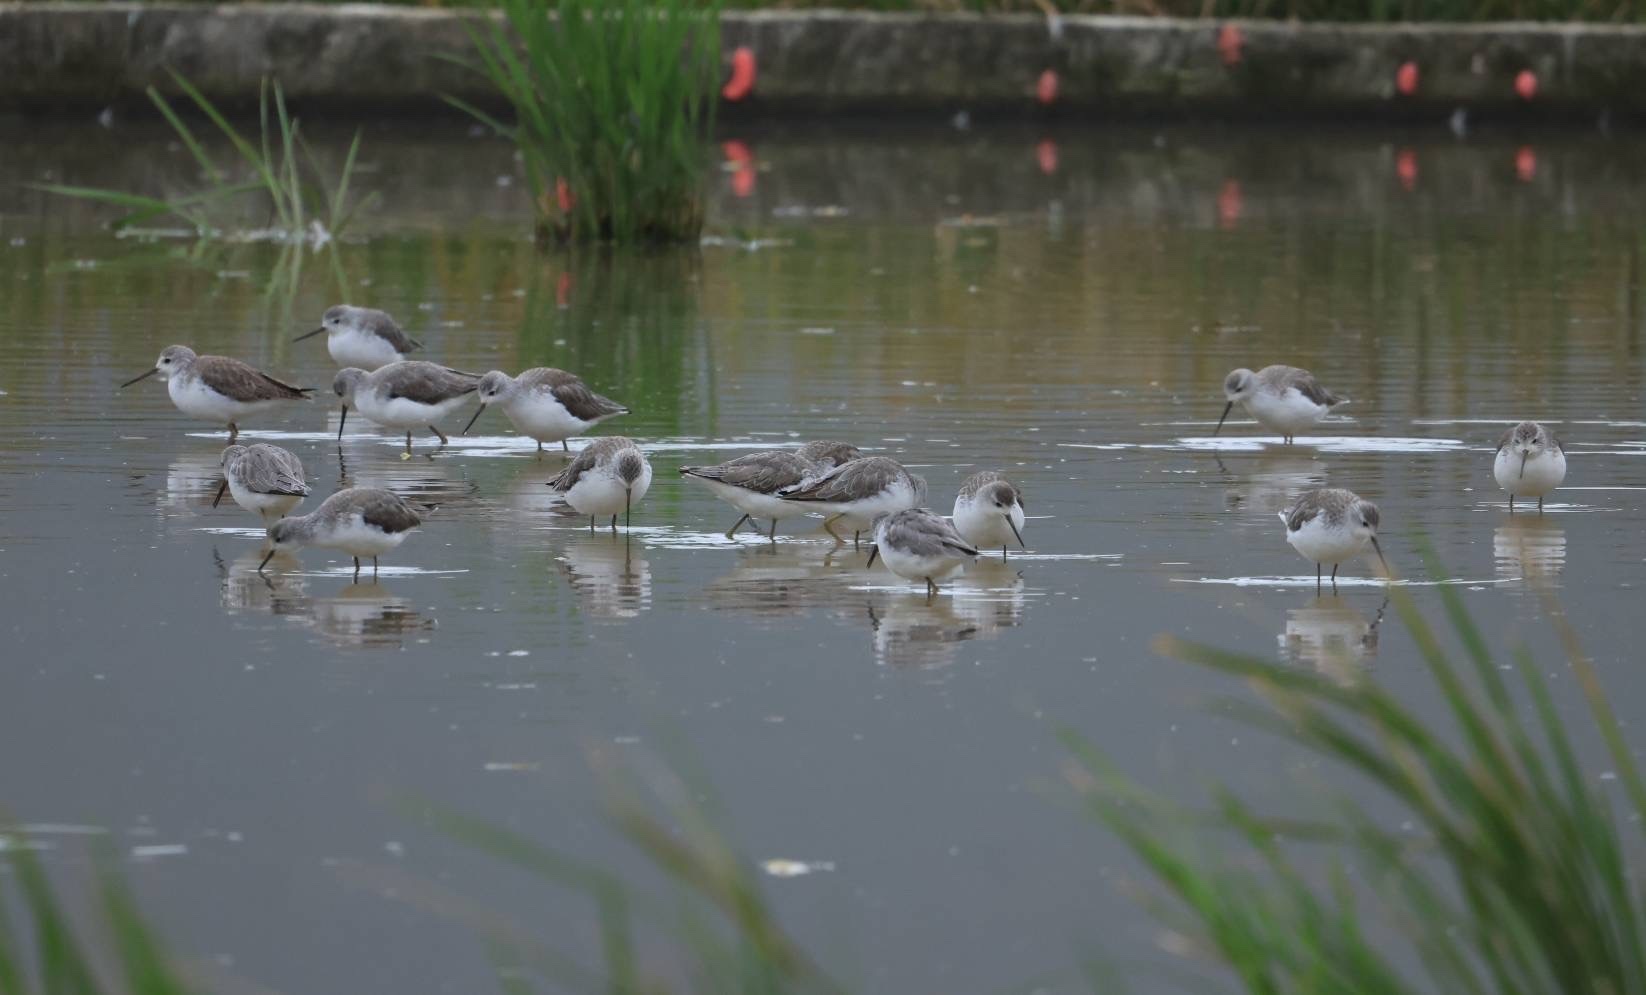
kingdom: Animalia
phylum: Chordata
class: Aves
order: Charadriiformes
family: Scolopacidae
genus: Tringa
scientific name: Tringa stagnatilis
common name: Marsh sandpiper
